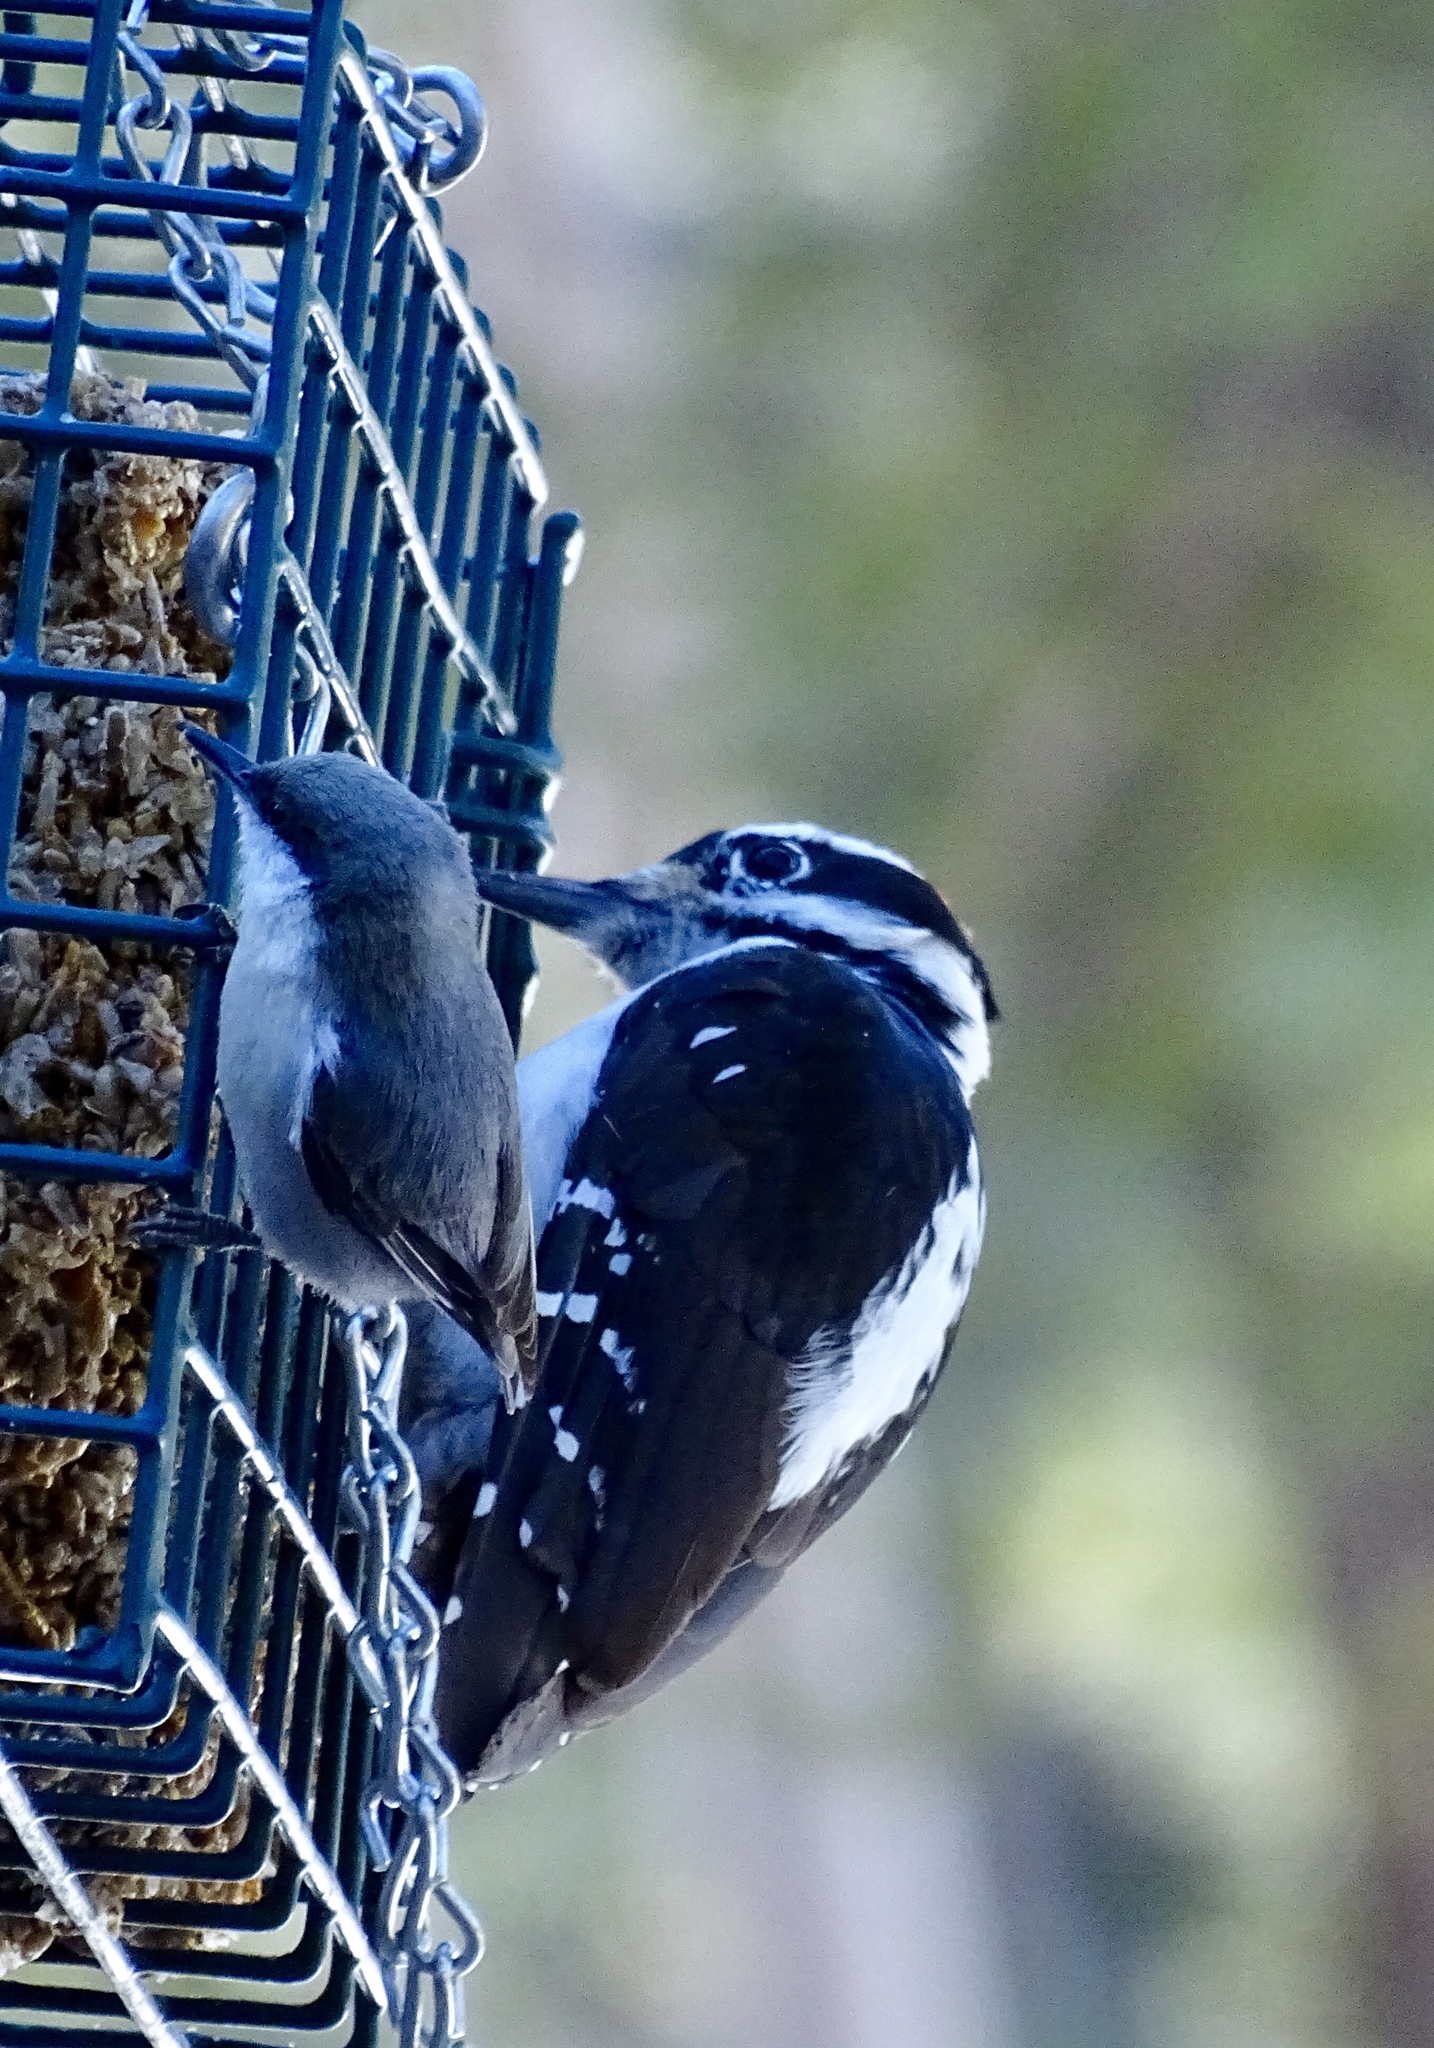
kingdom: Animalia
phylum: Chordata
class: Aves
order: Passeriformes
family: Sittidae
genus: Sitta
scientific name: Sitta pygmaea
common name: Pygmy nuthatch
